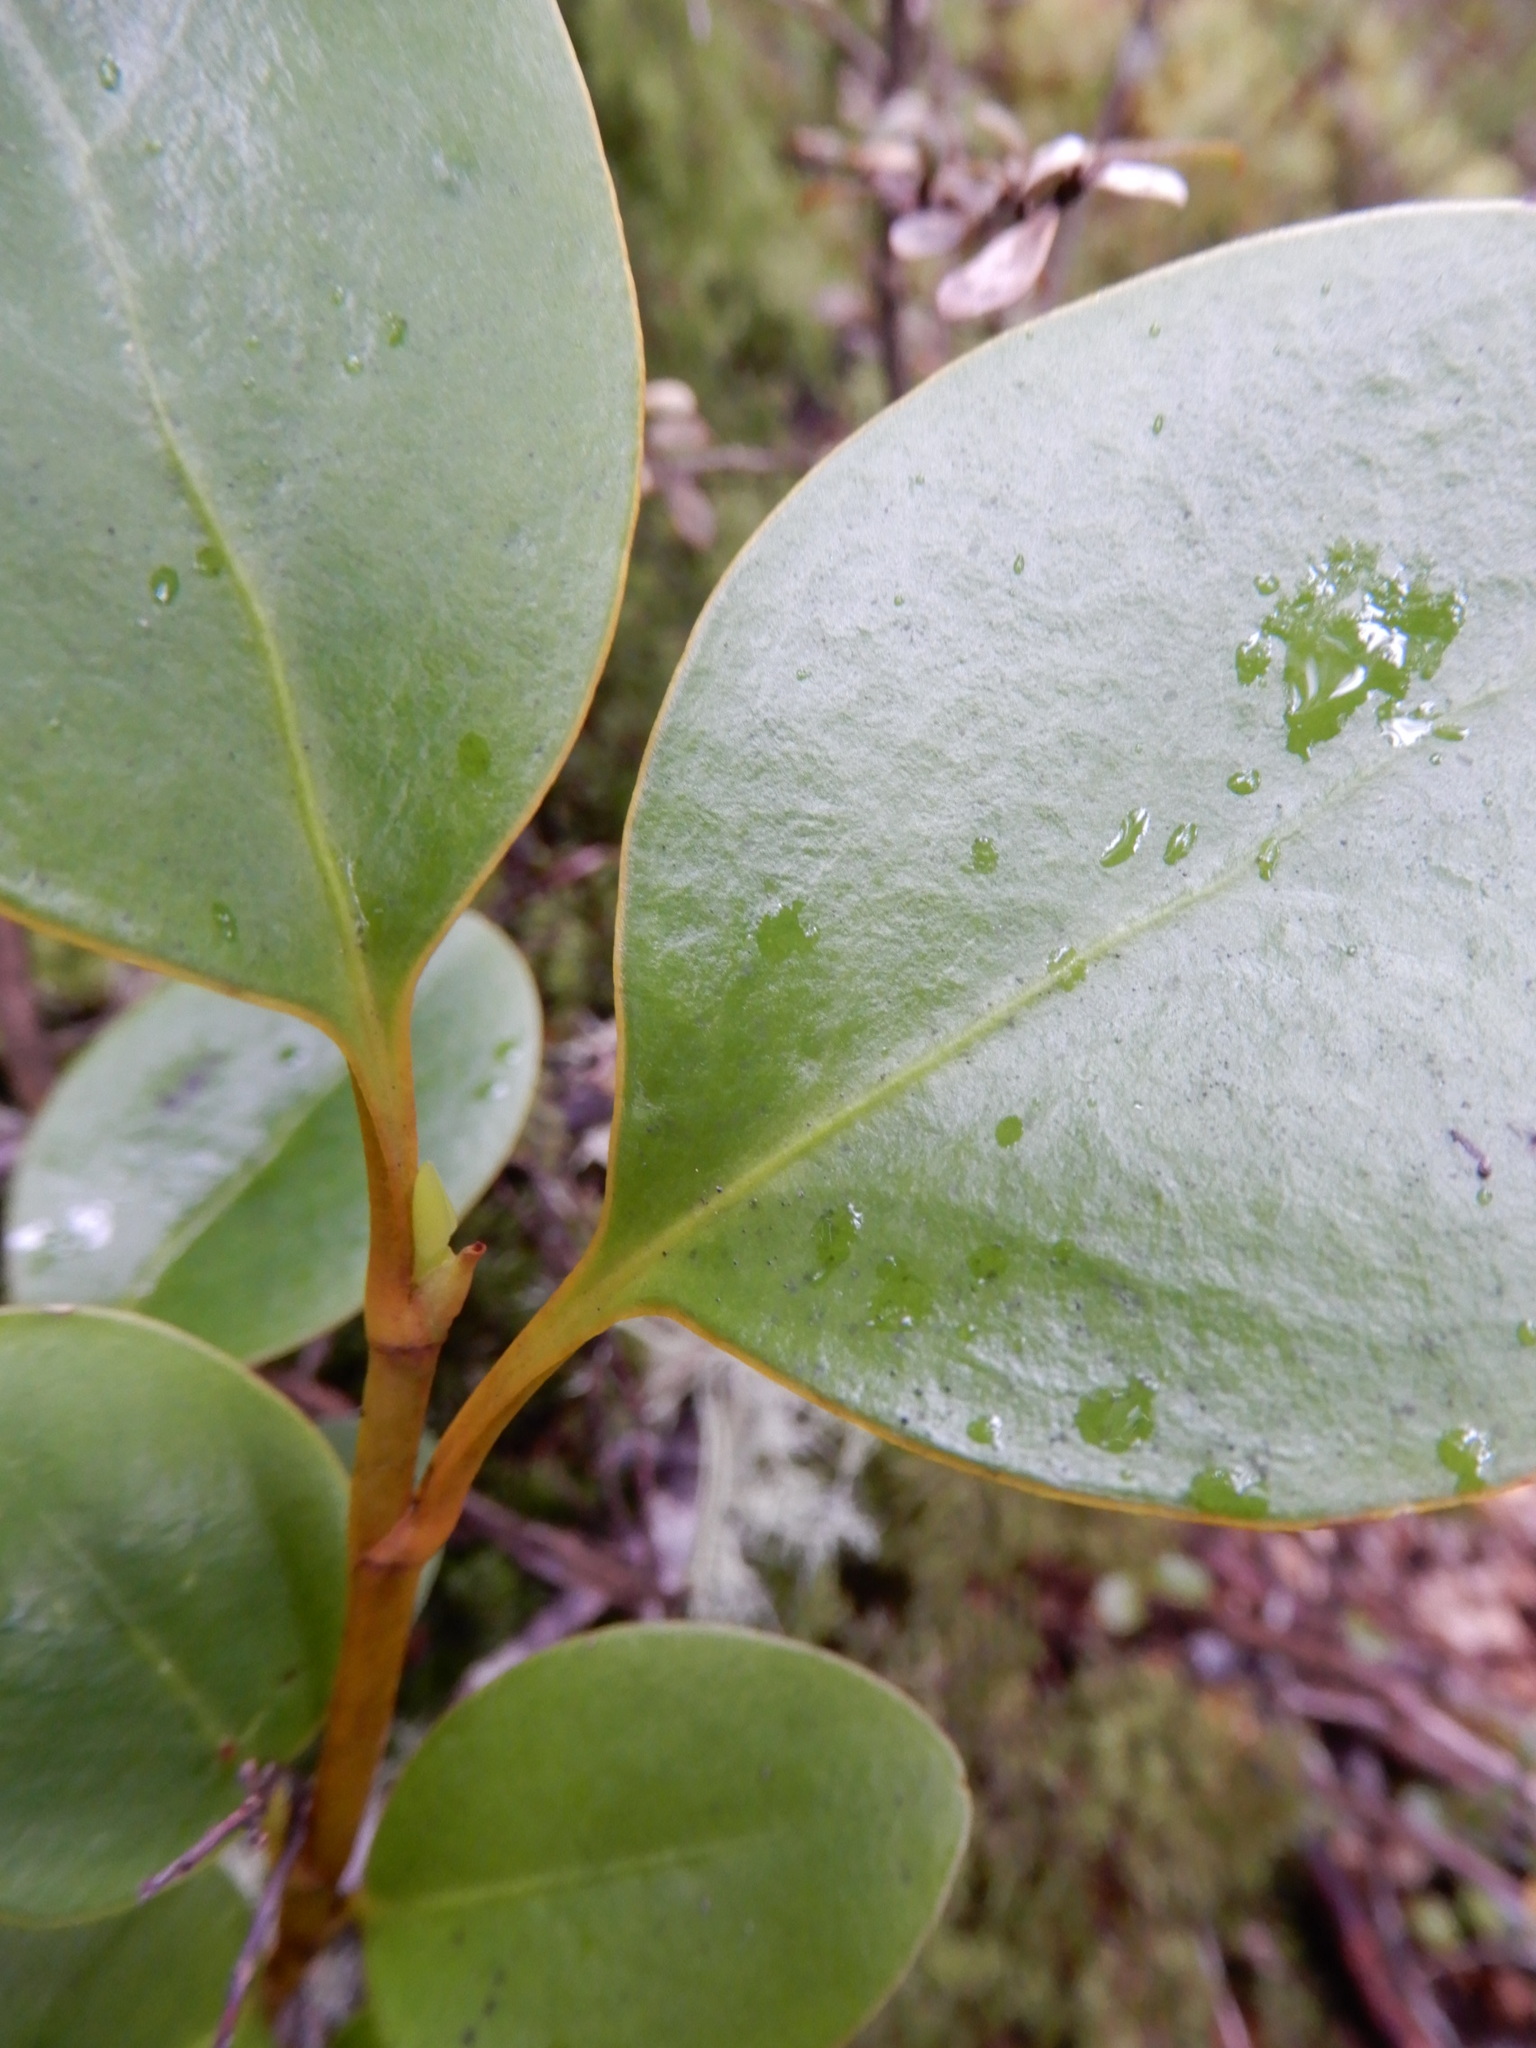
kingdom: Plantae
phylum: Tracheophyta
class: Magnoliopsida
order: Apiales
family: Griseliniaceae
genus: Griselinia
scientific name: Griselinia littoralis
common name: New zealand broadleaf
